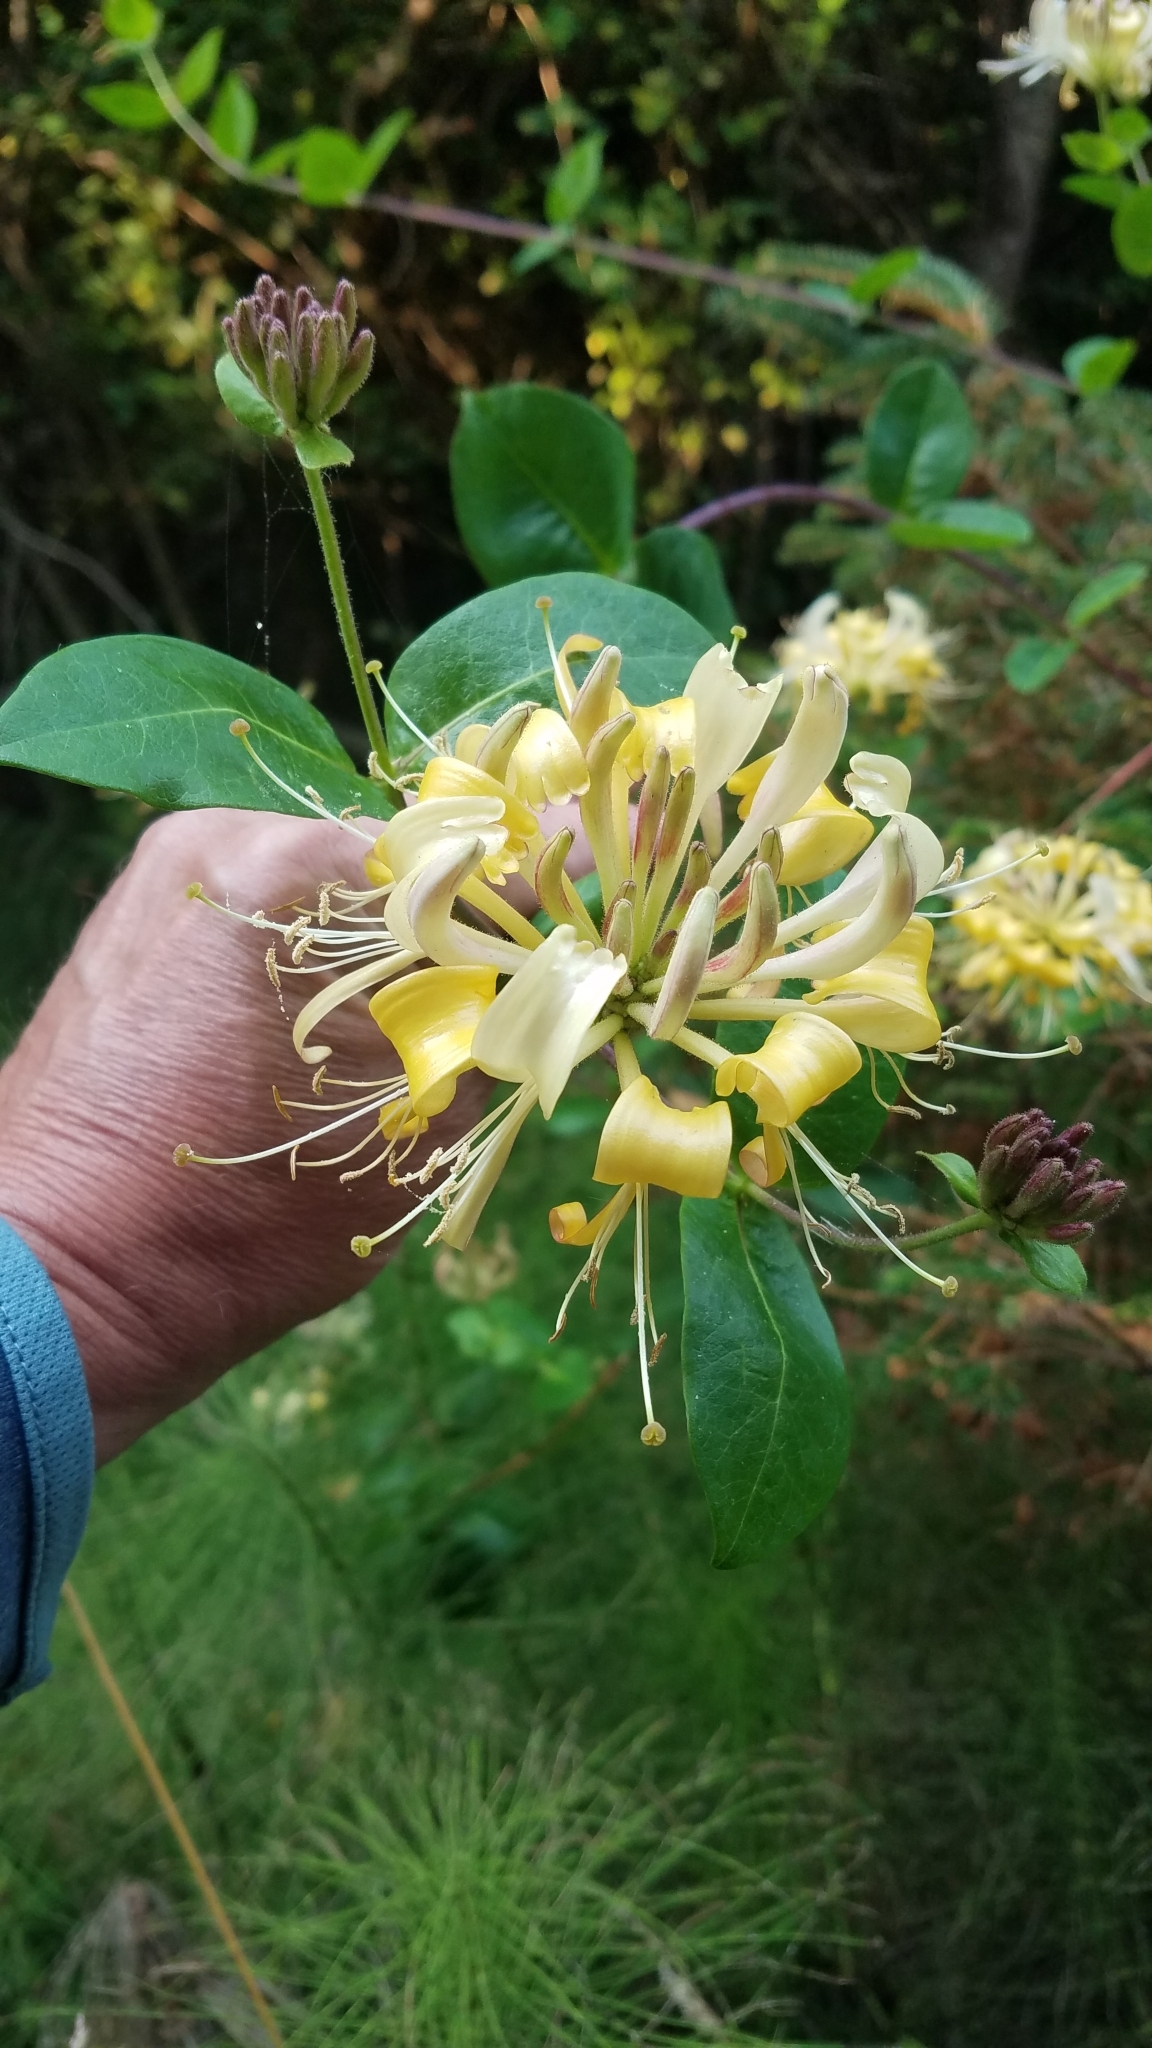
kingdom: Plantae
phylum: Tracheophyta
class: Magnoliopsida
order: Dipsacales
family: Caprifoliaceae
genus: Lonicera
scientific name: Lonicera periclymenum
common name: European honeysuckle
